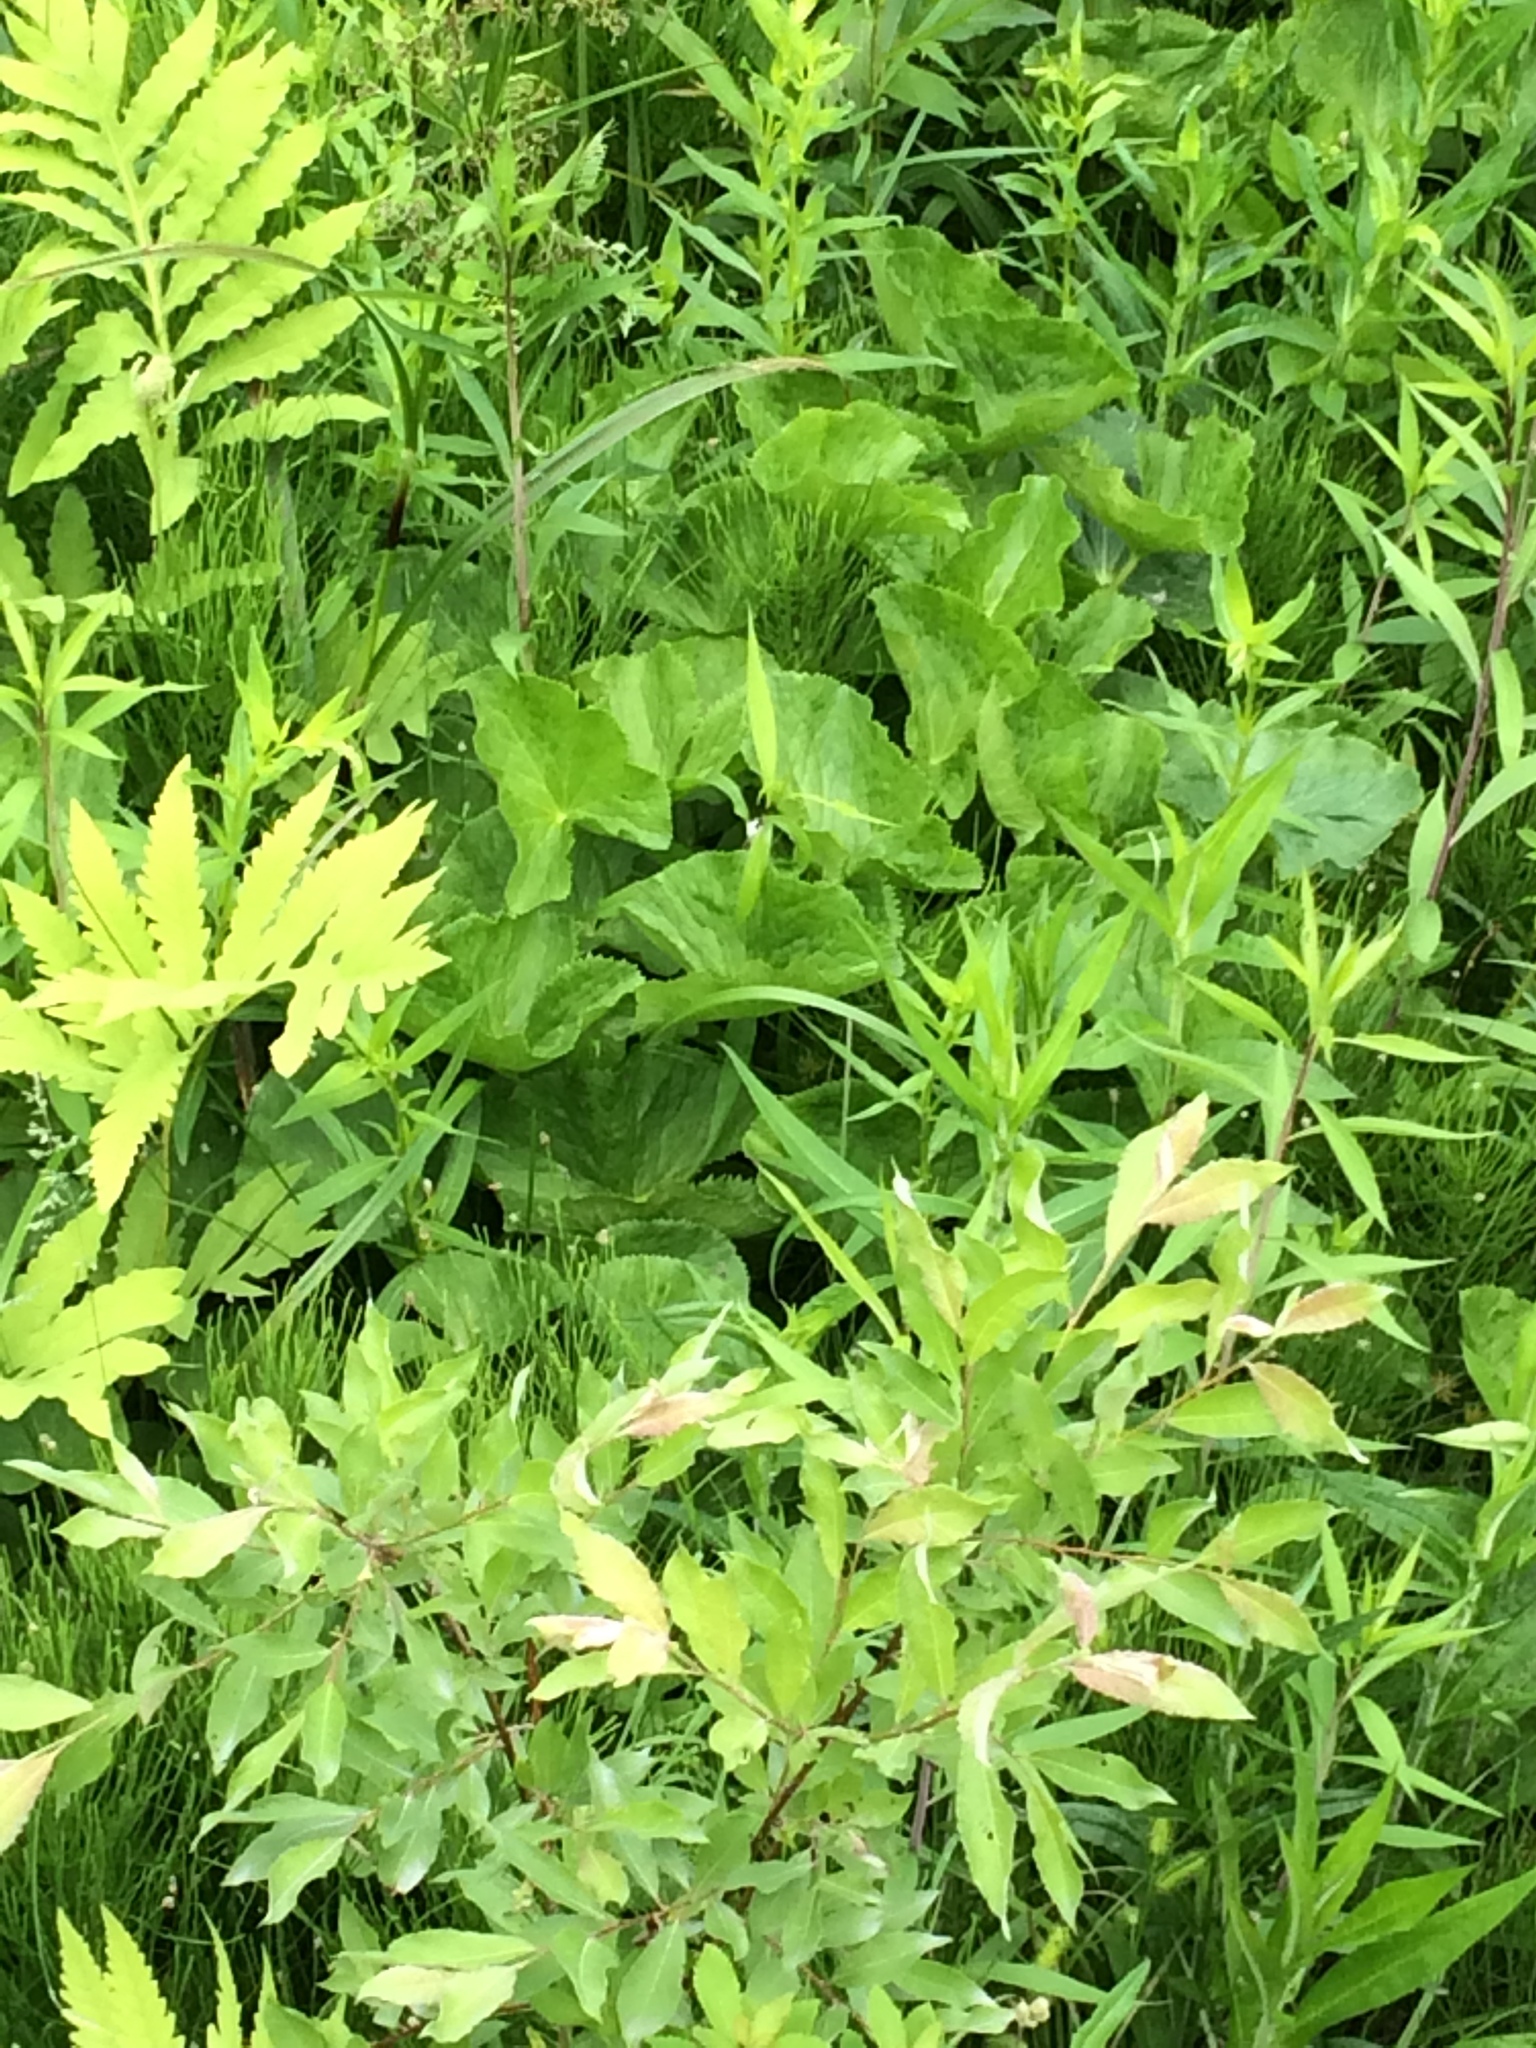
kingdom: Plantae
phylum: Tracheophyta
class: Magnoliopsida
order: Ranunculales
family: Ranunculaceae
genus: Caltha
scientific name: Caltha palustris
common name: Marsh marigold
